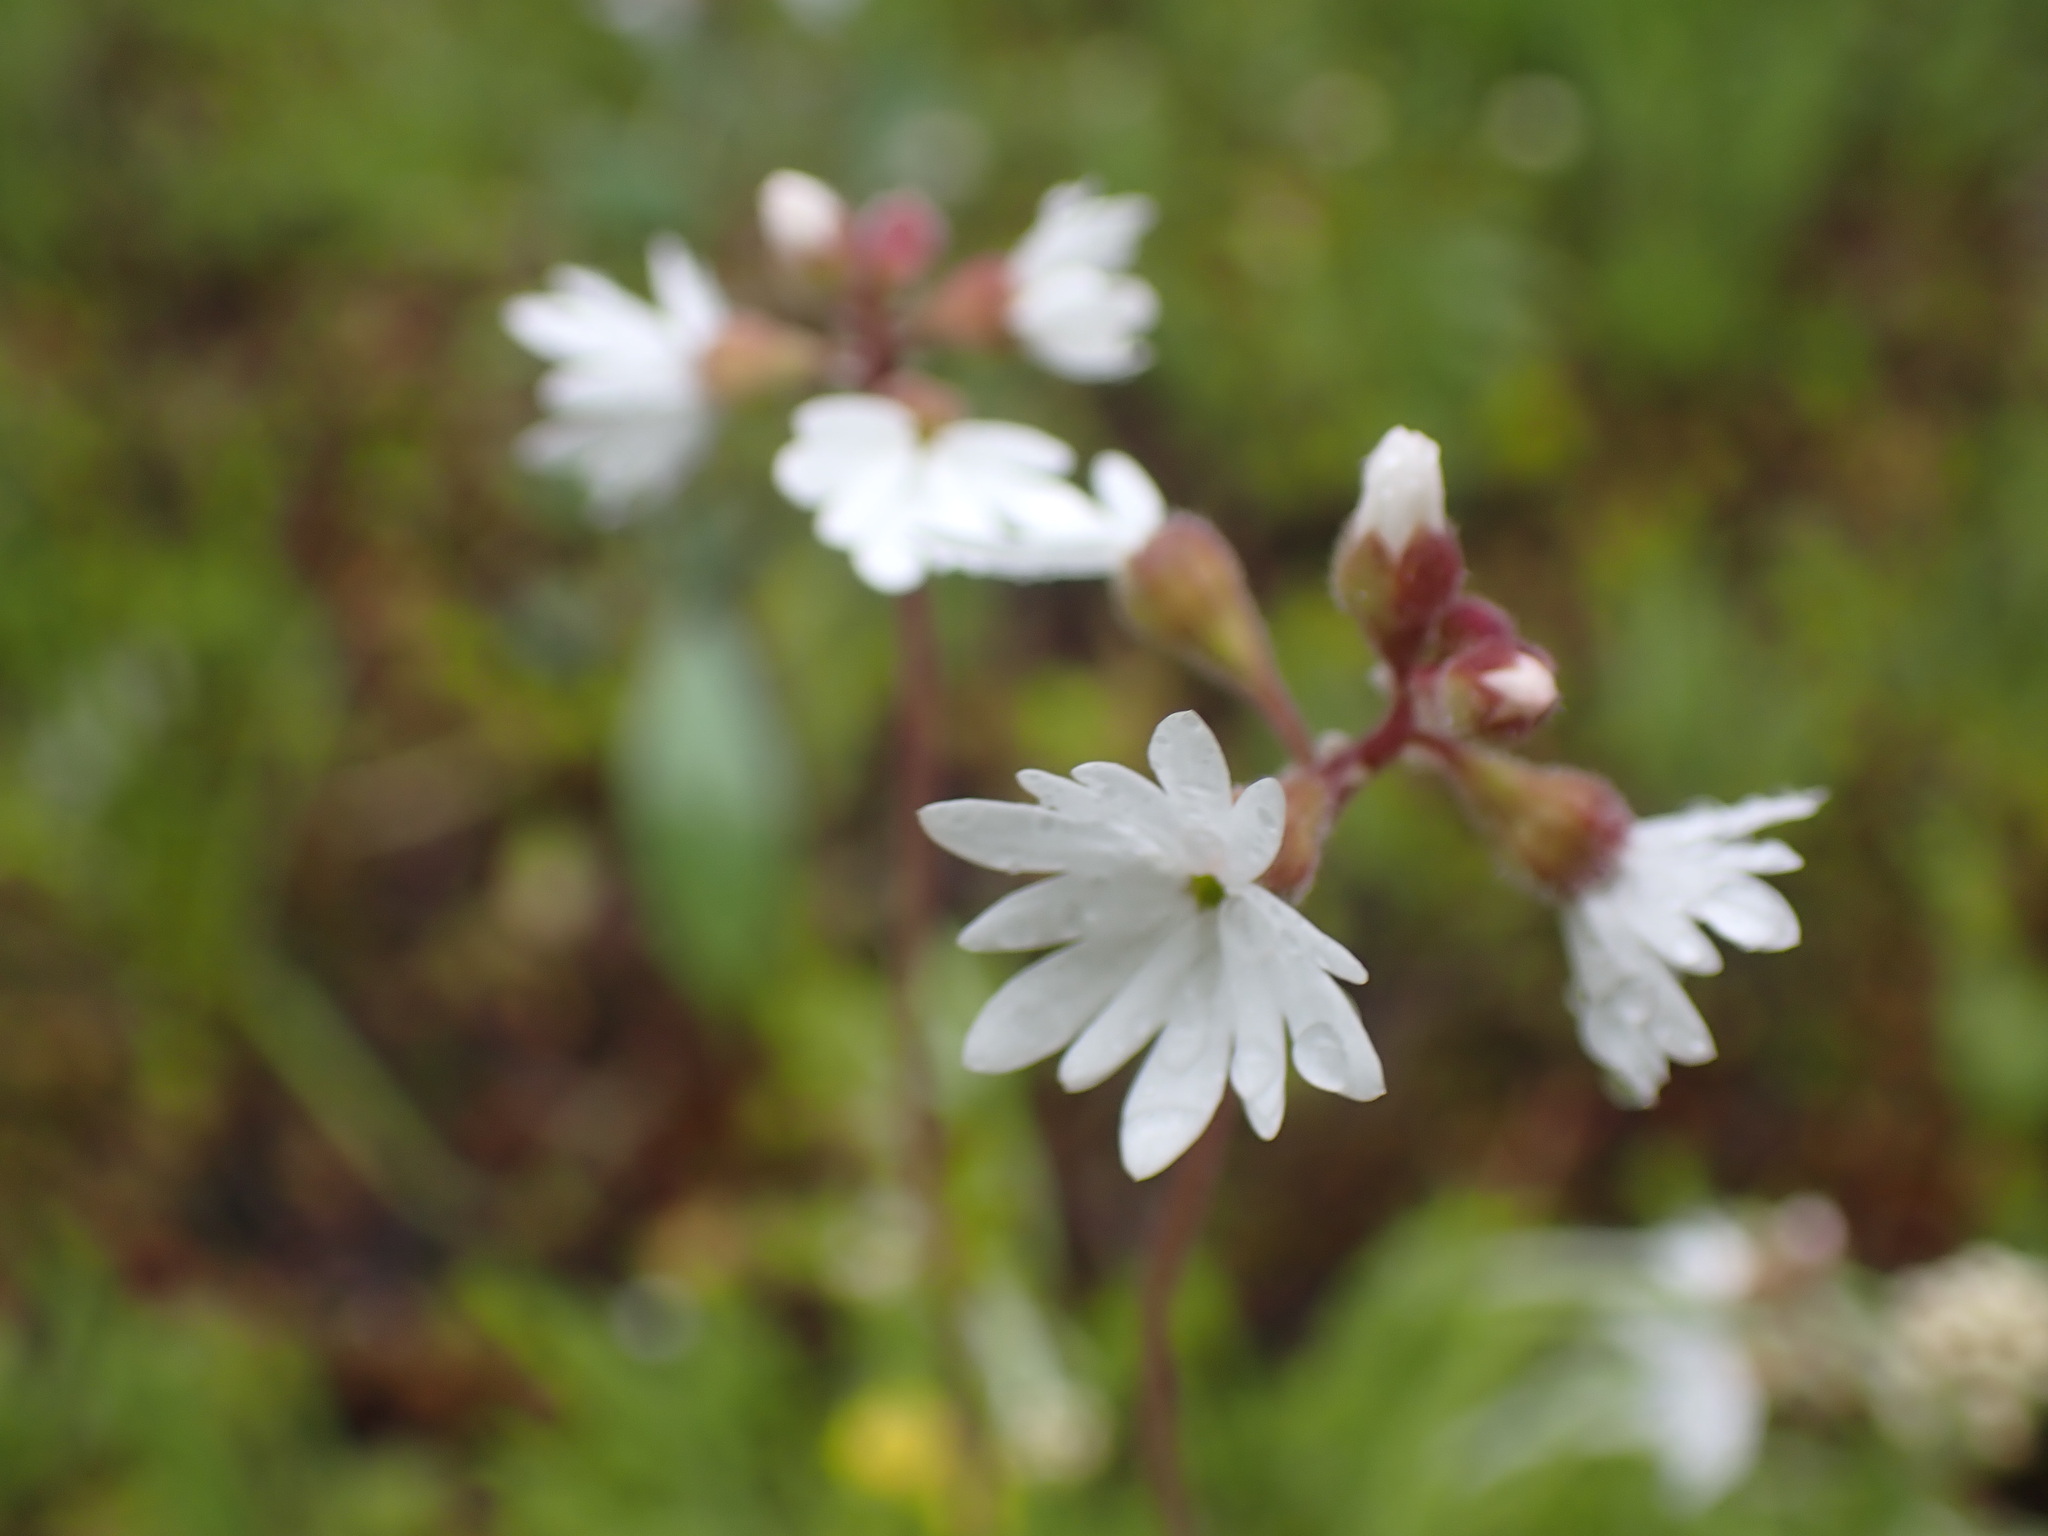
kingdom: Plantae
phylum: Tracheophyta
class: Magnoliopsida
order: Saxifragales
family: Saxifragaceae
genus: Lithophragma
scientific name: Lithophragma parviflorum
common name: Small-flowered fringe-cup
